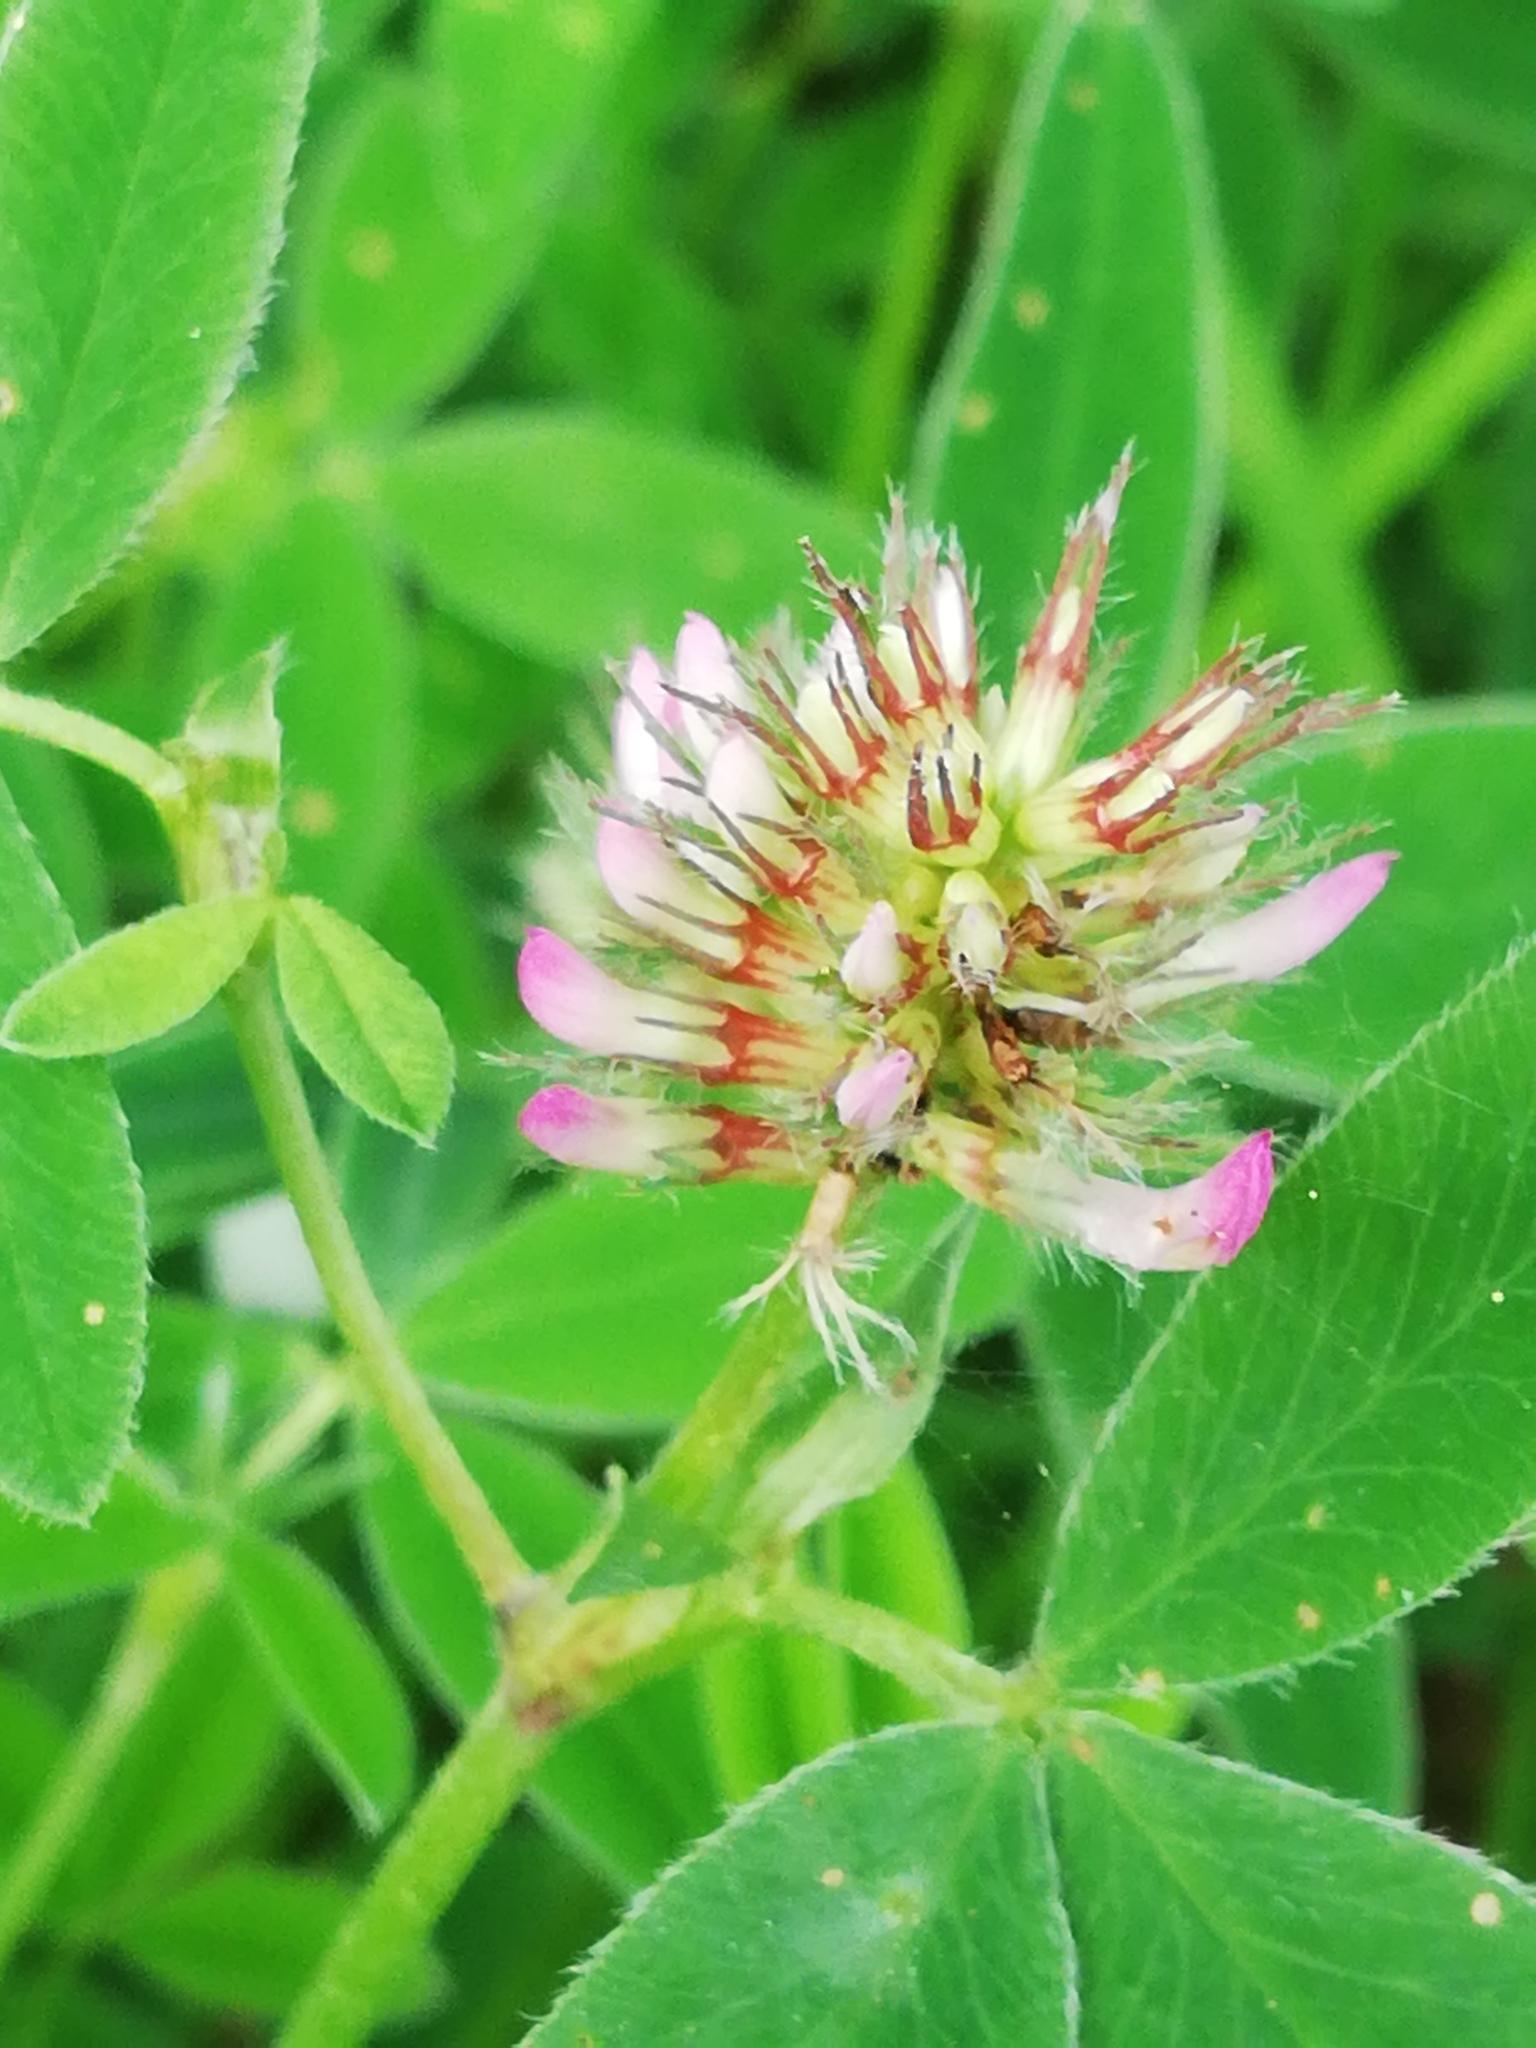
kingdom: Plantae
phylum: Tracheophyta
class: Magnoliopsida
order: Fabales
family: Fabaceae
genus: Trifolium
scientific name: Trifolium medium
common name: Zigzag clover
